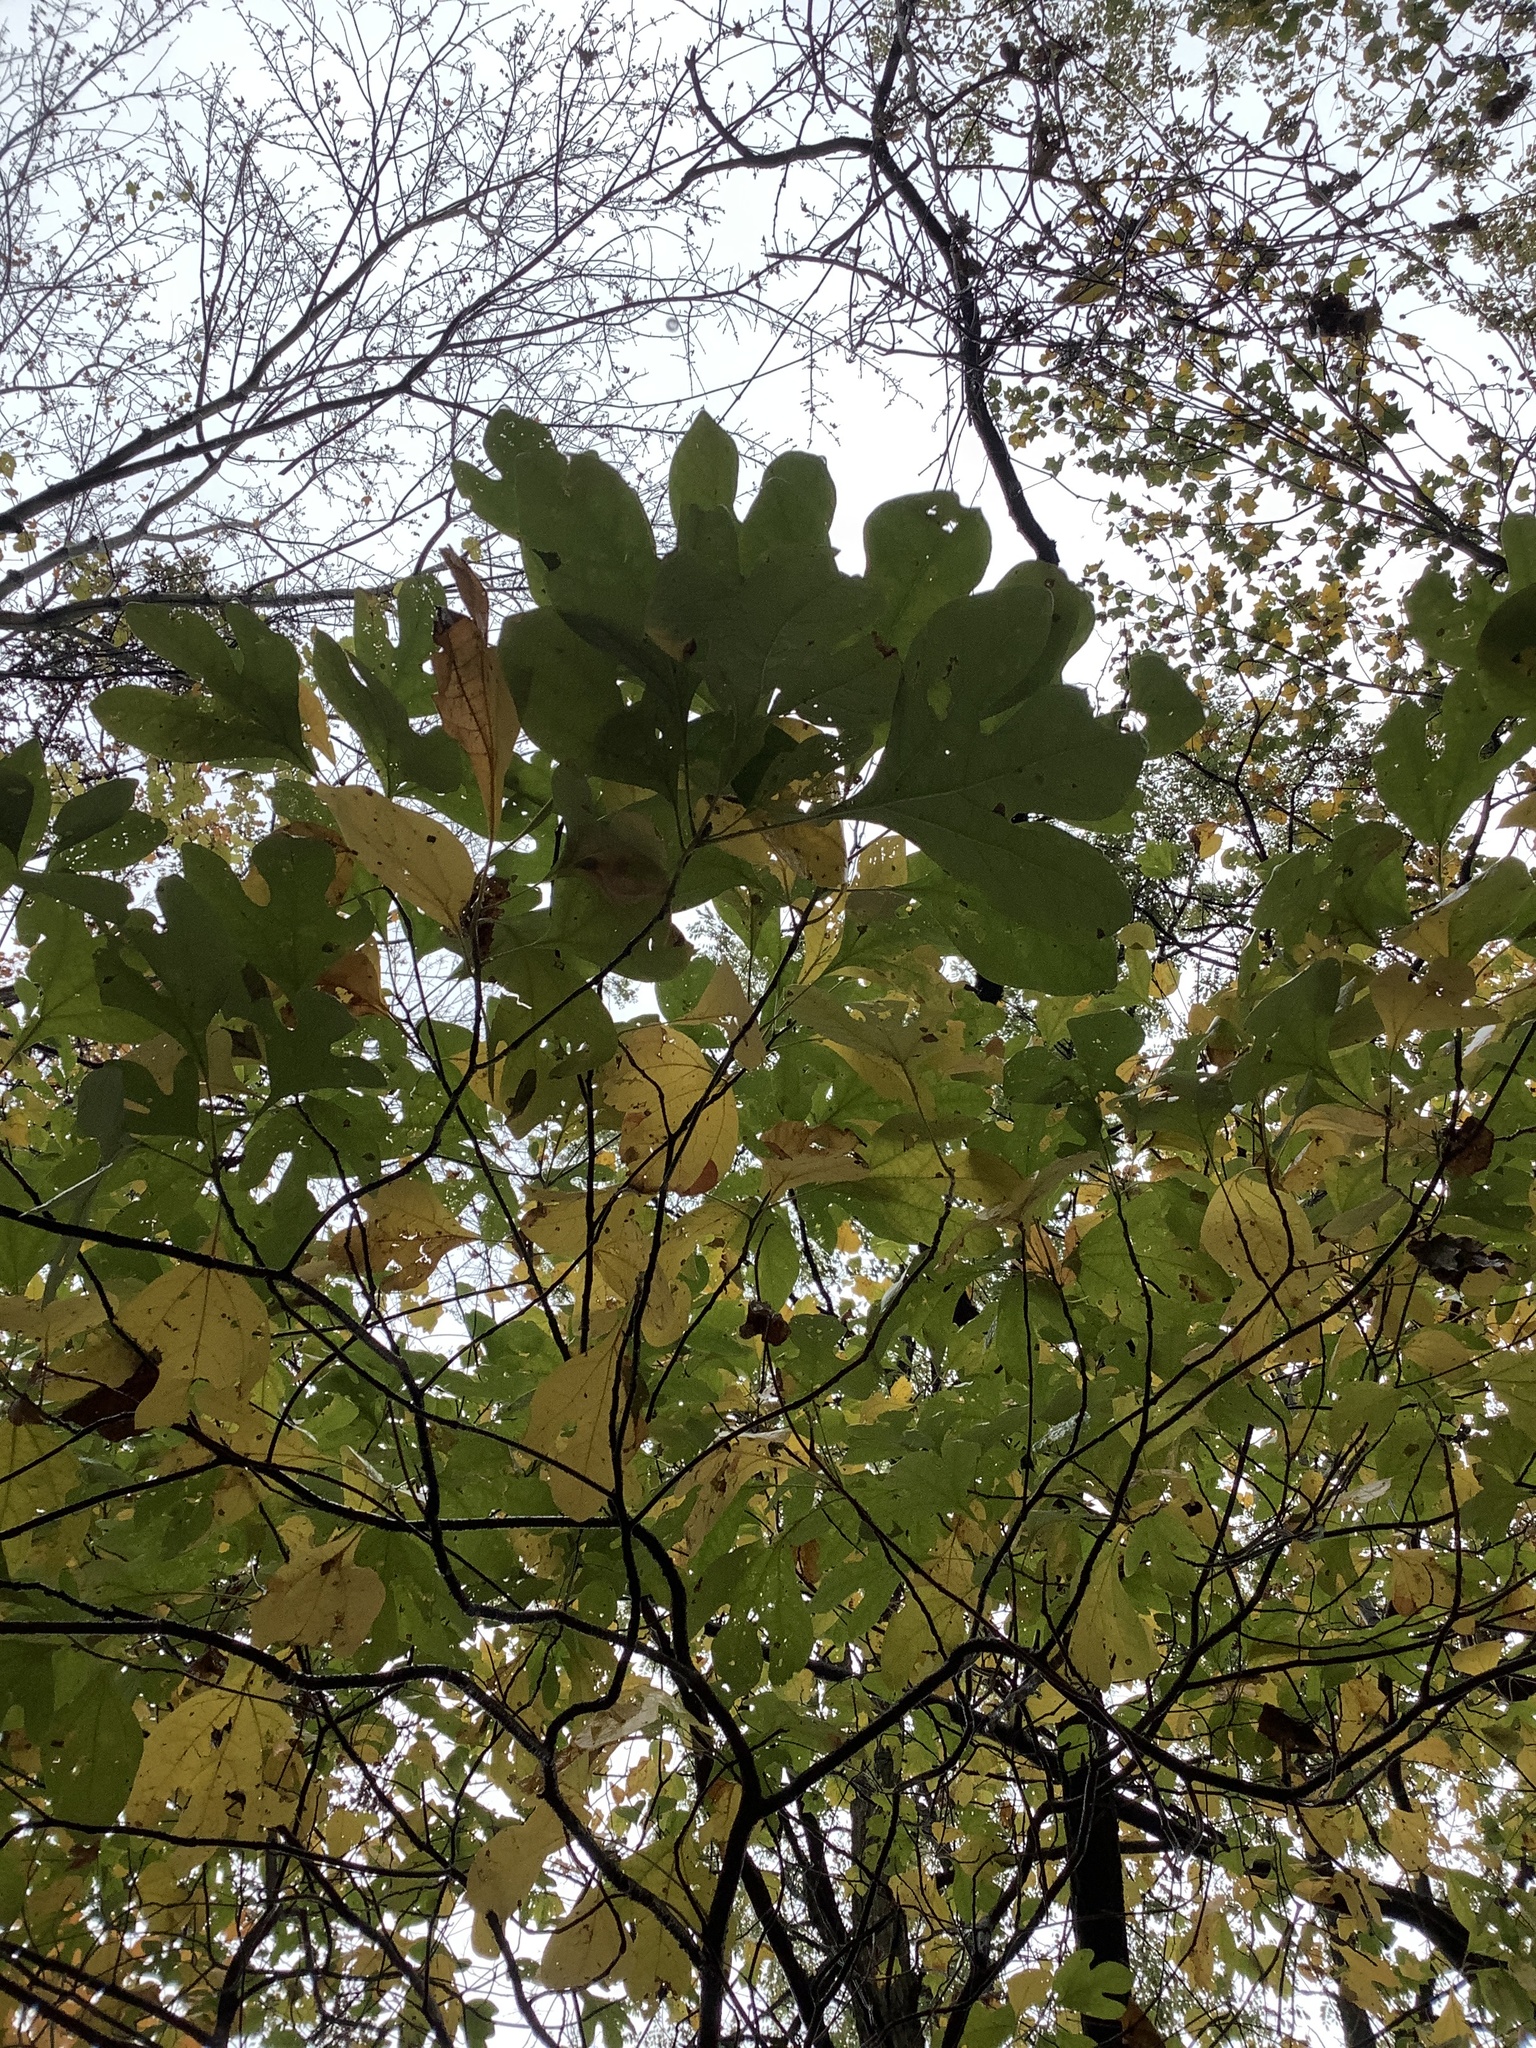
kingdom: Plantae
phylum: Tracheophyta
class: Magnoliopsida
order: Laurales
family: Lauraceae
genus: Sassafras
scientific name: Sassafras albidum
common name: Sassafras
